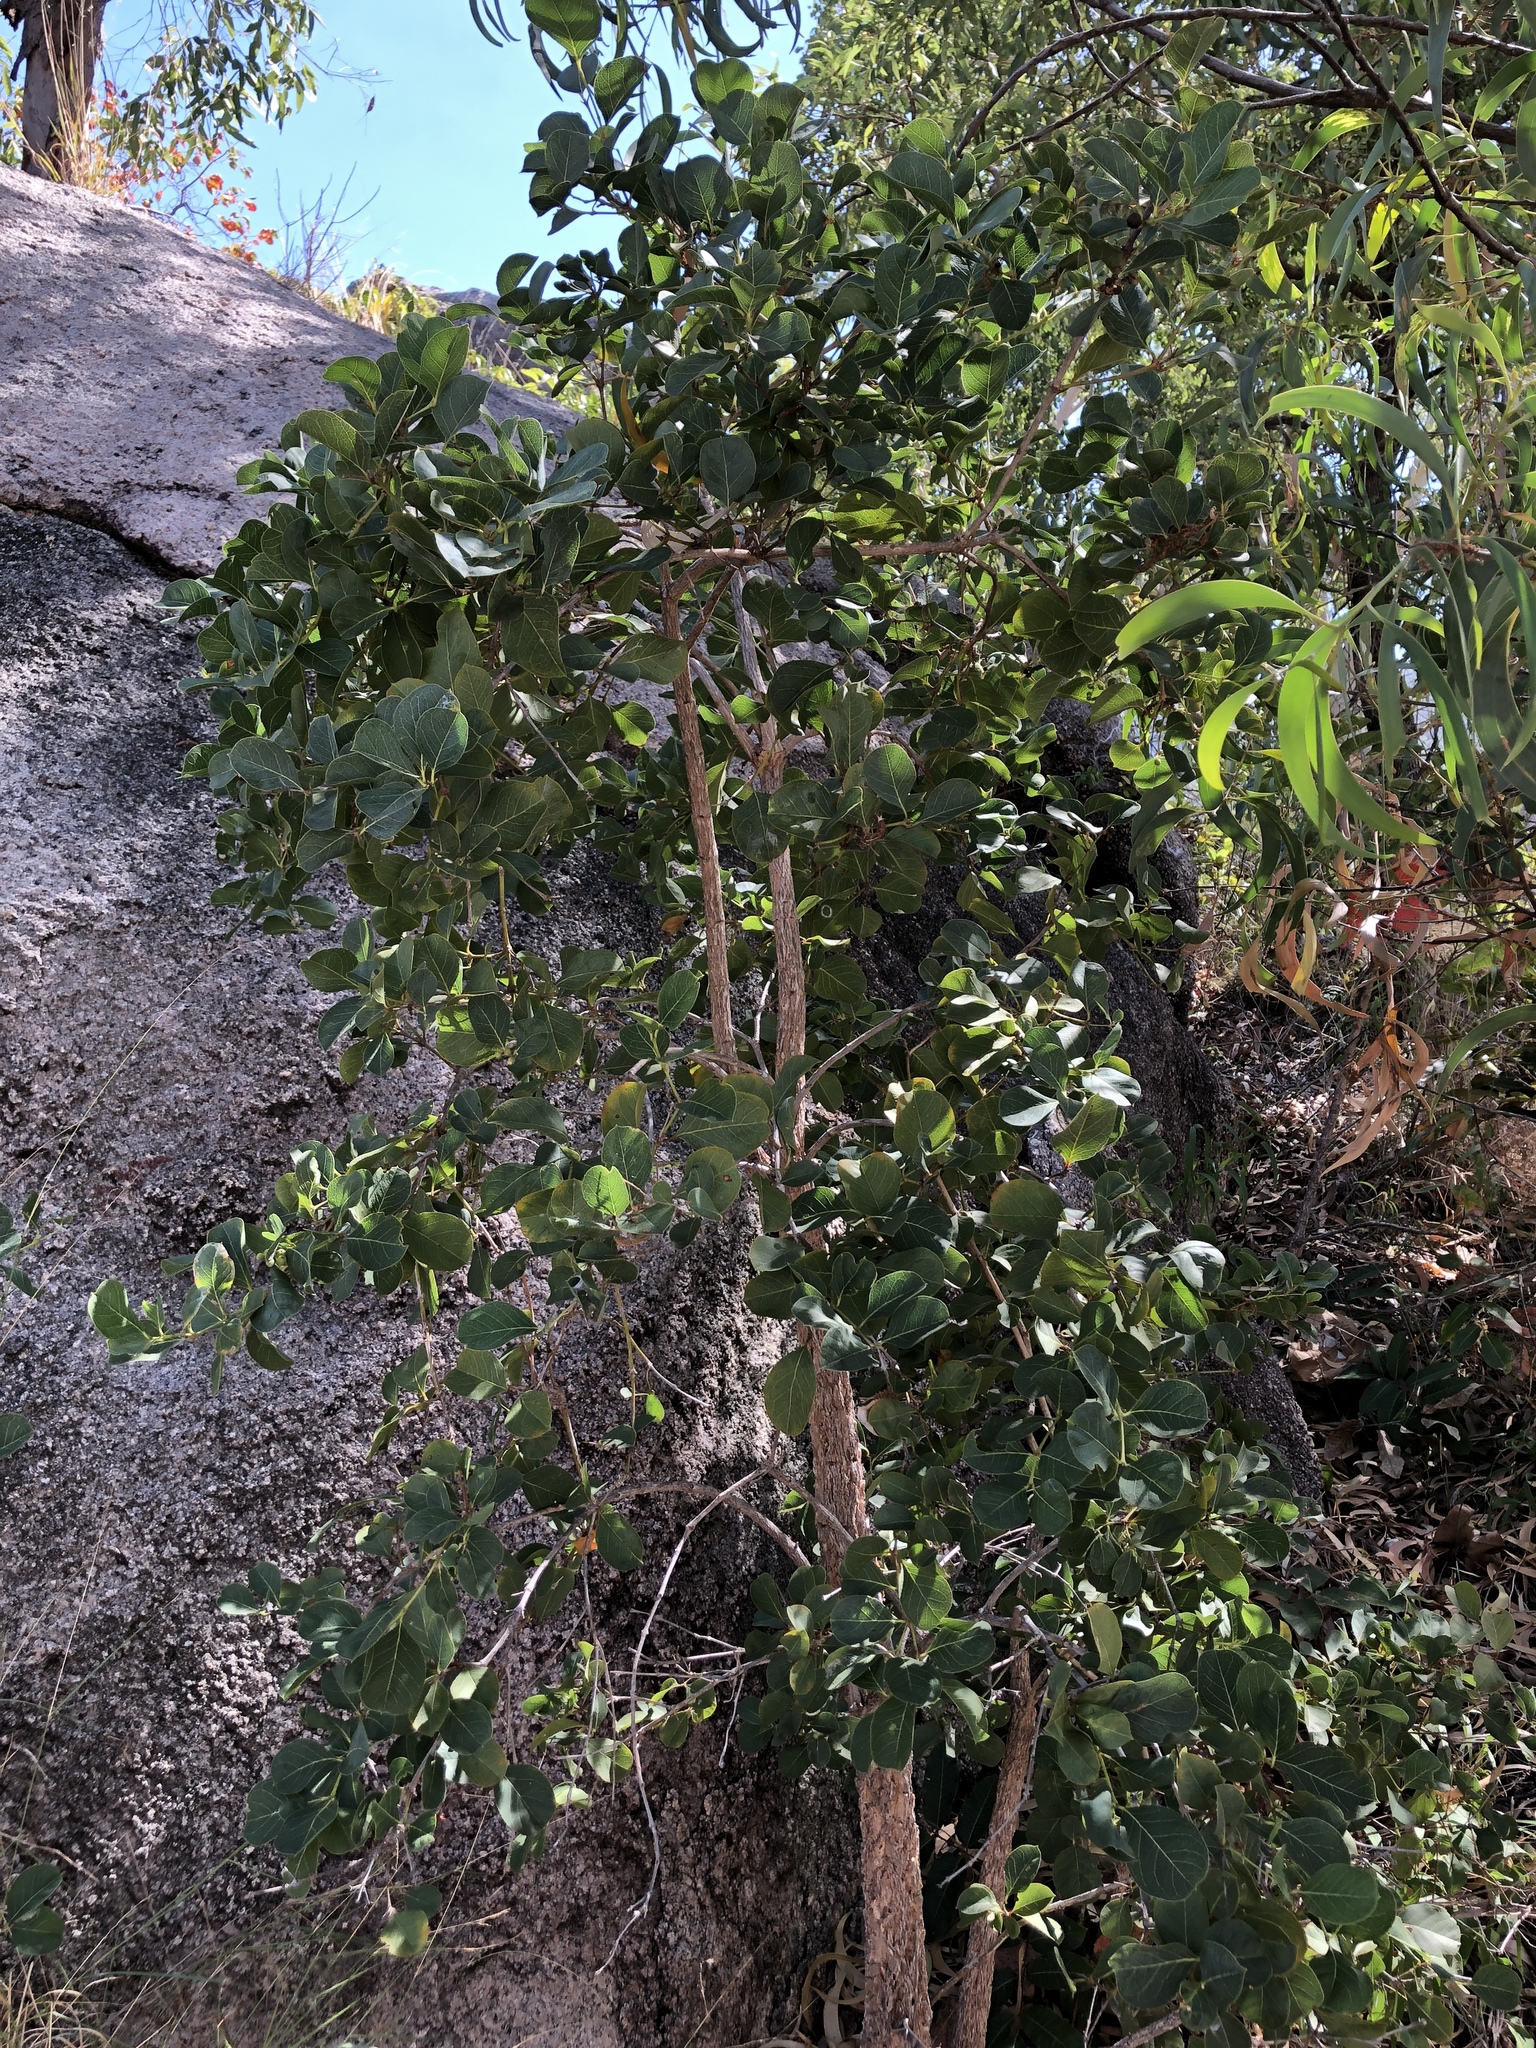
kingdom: Plantae
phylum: Tracheophyta
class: Magnoliopsida
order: Gentianales
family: Rubiaceae
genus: Coelospermum
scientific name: Coelospermum reticulatum
